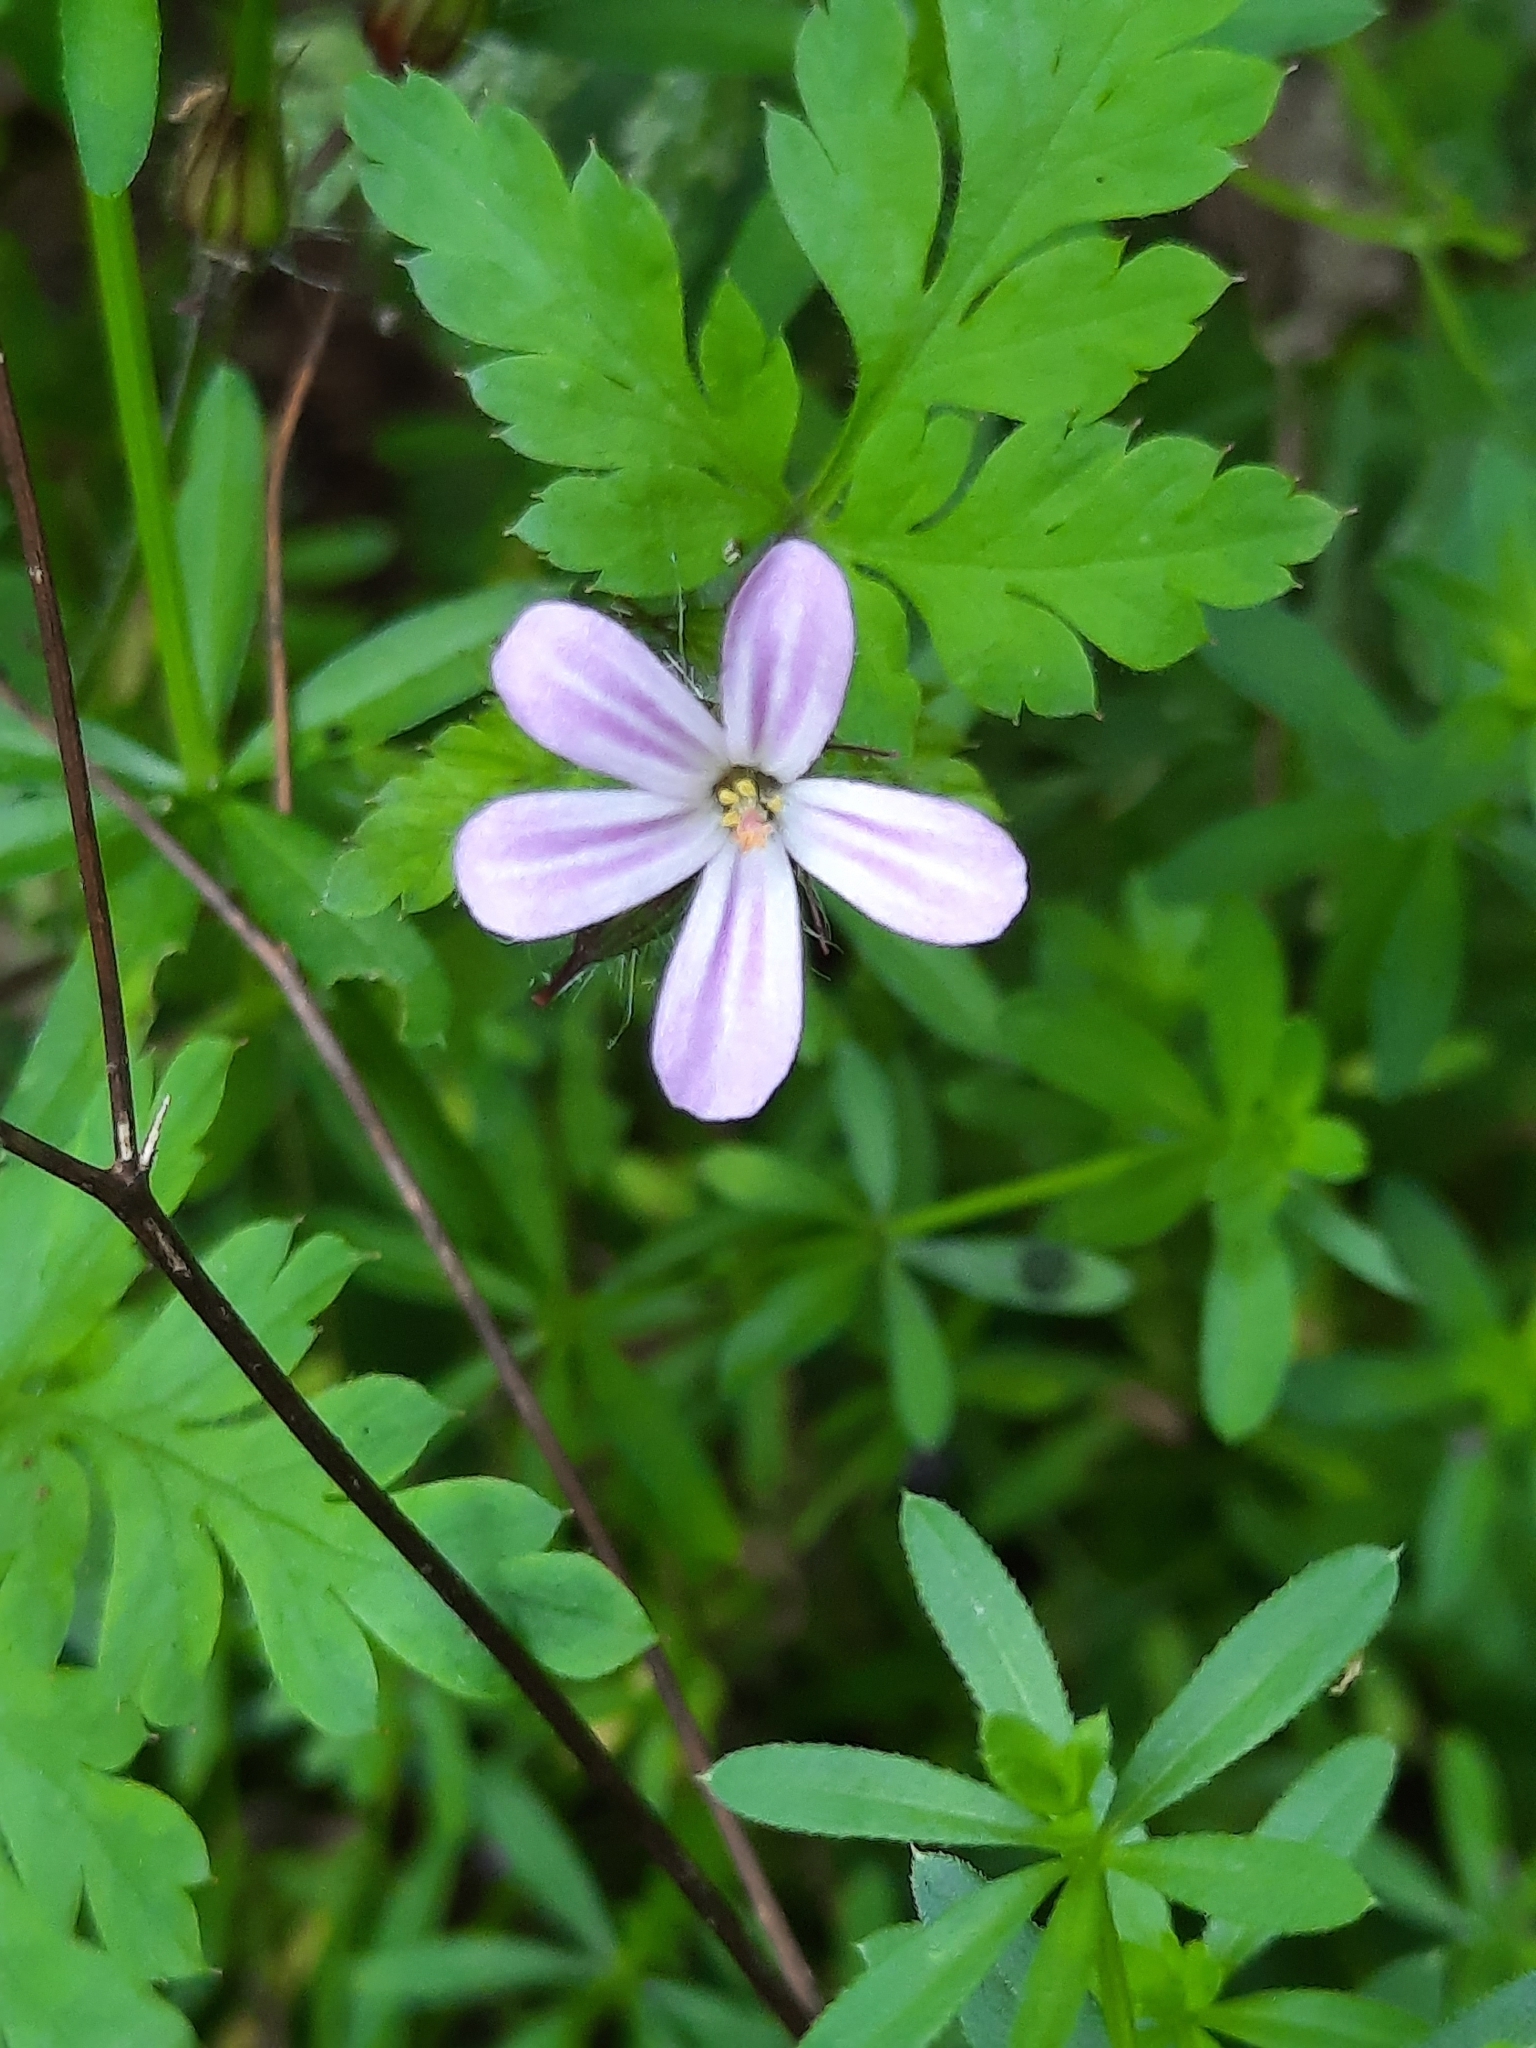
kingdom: Plantae
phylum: Tracheophyta
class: Magnoliopsida
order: Geraniales
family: Geraniaceae
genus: Geranium
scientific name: Geranium robertianum
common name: Herb-robert
